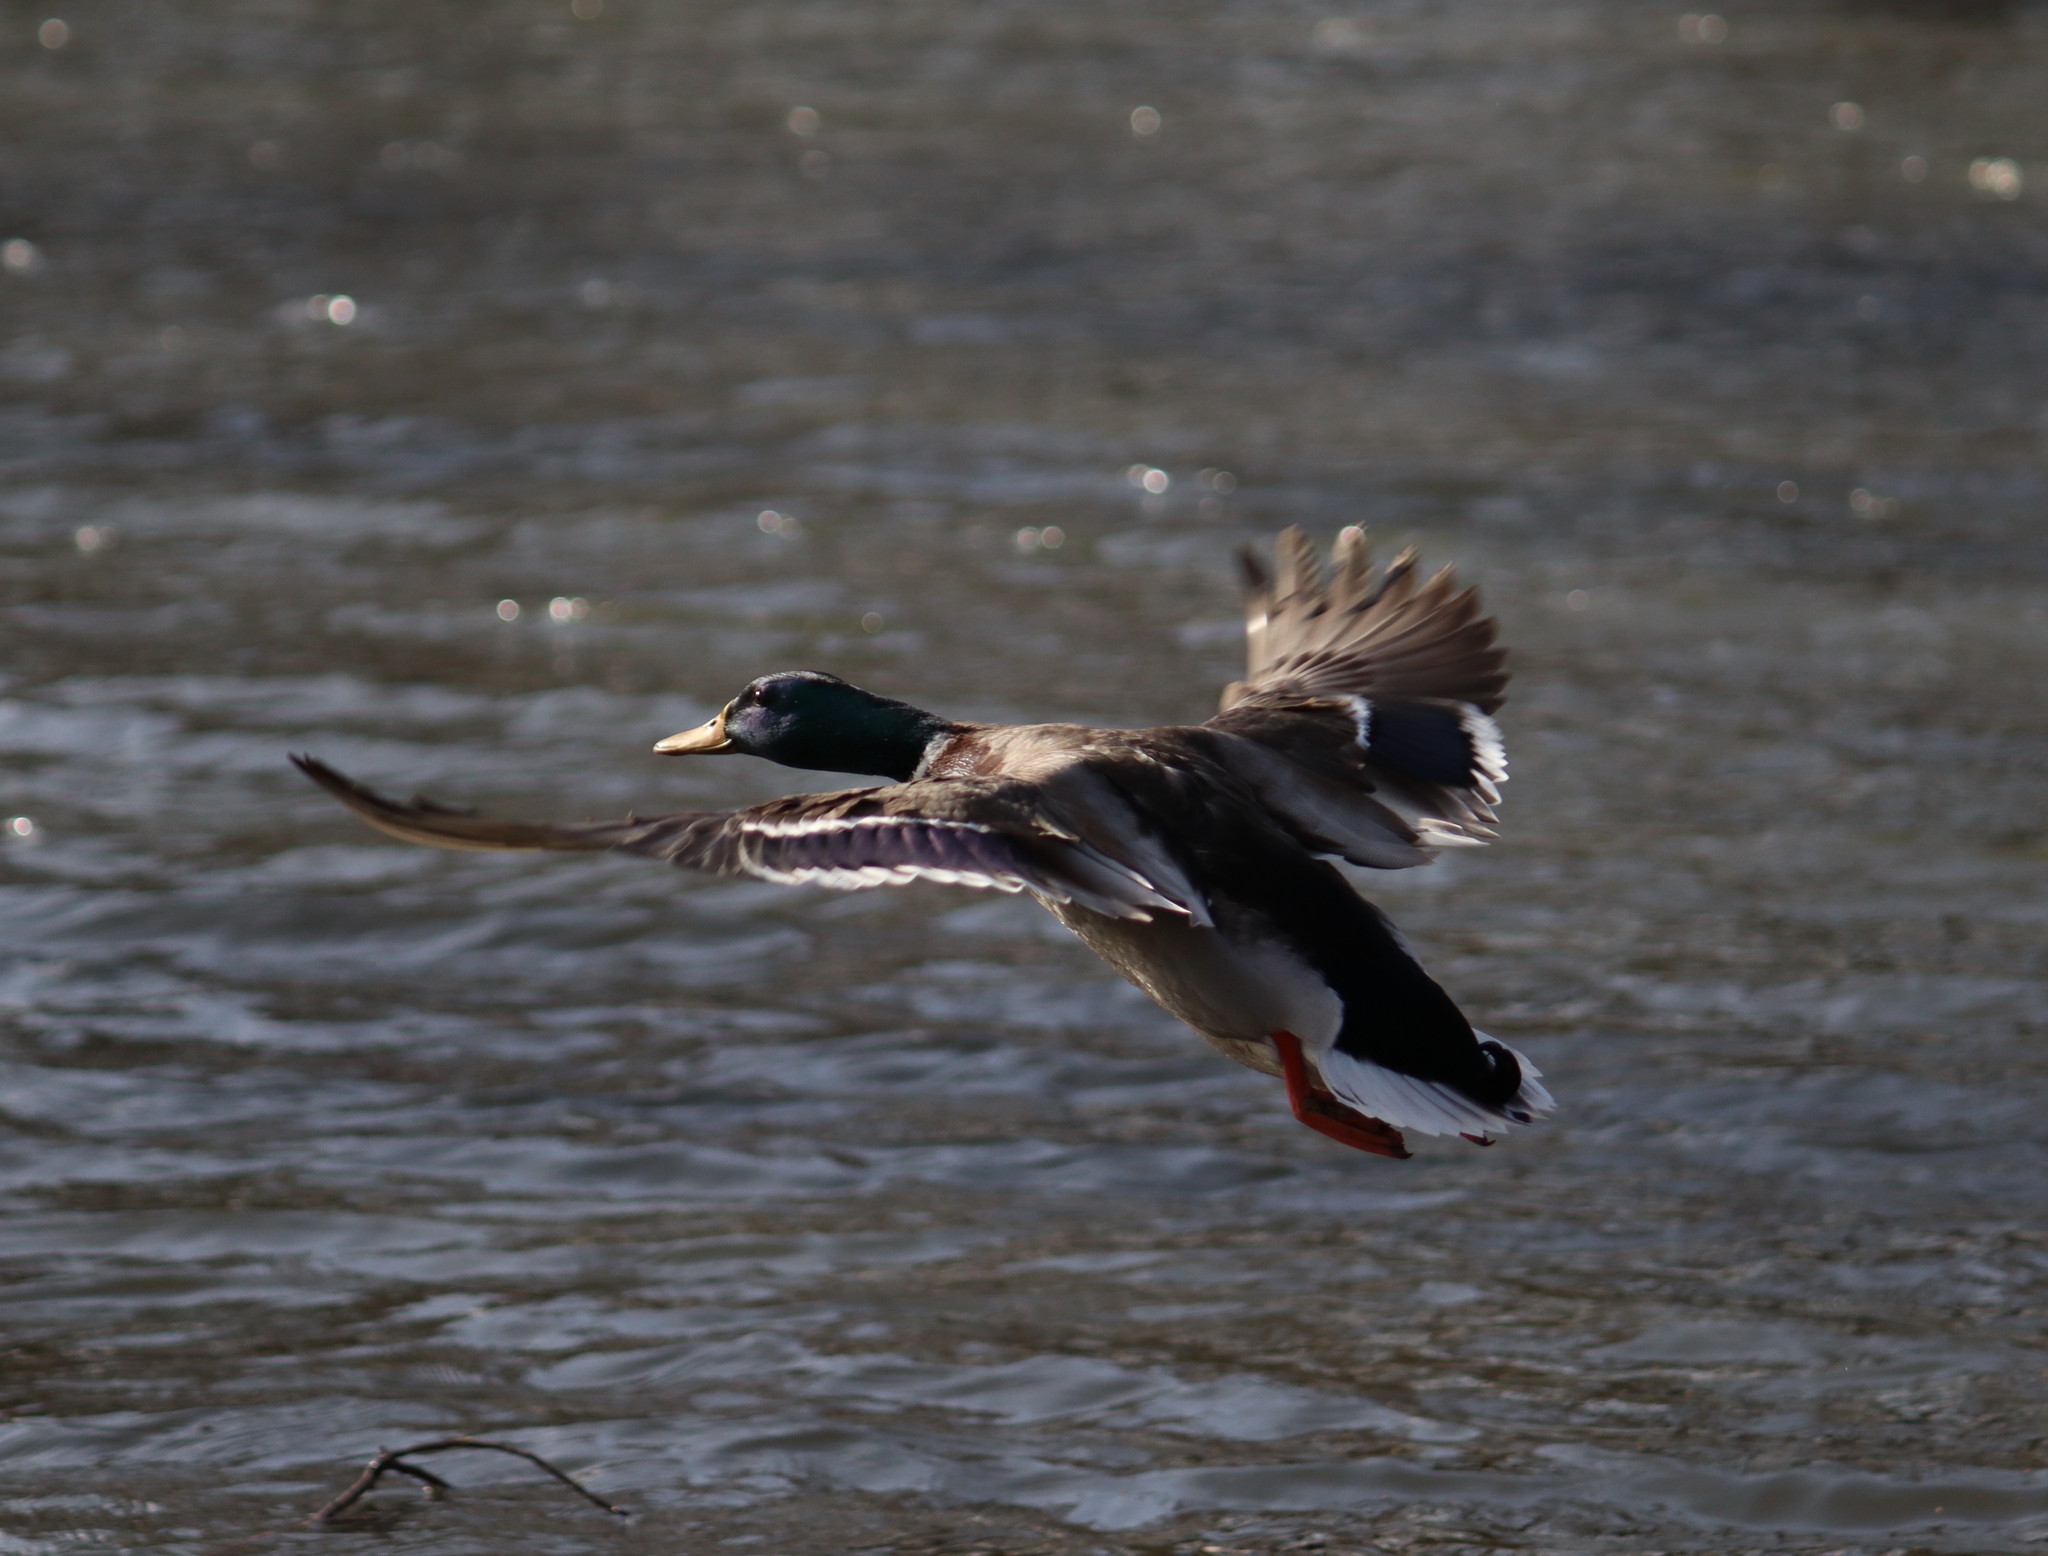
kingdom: Animalia
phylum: Chordata
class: Aves
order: Anseriformes
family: Anatidae
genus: Anas
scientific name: Anas platyrhynchos
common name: Mallard
